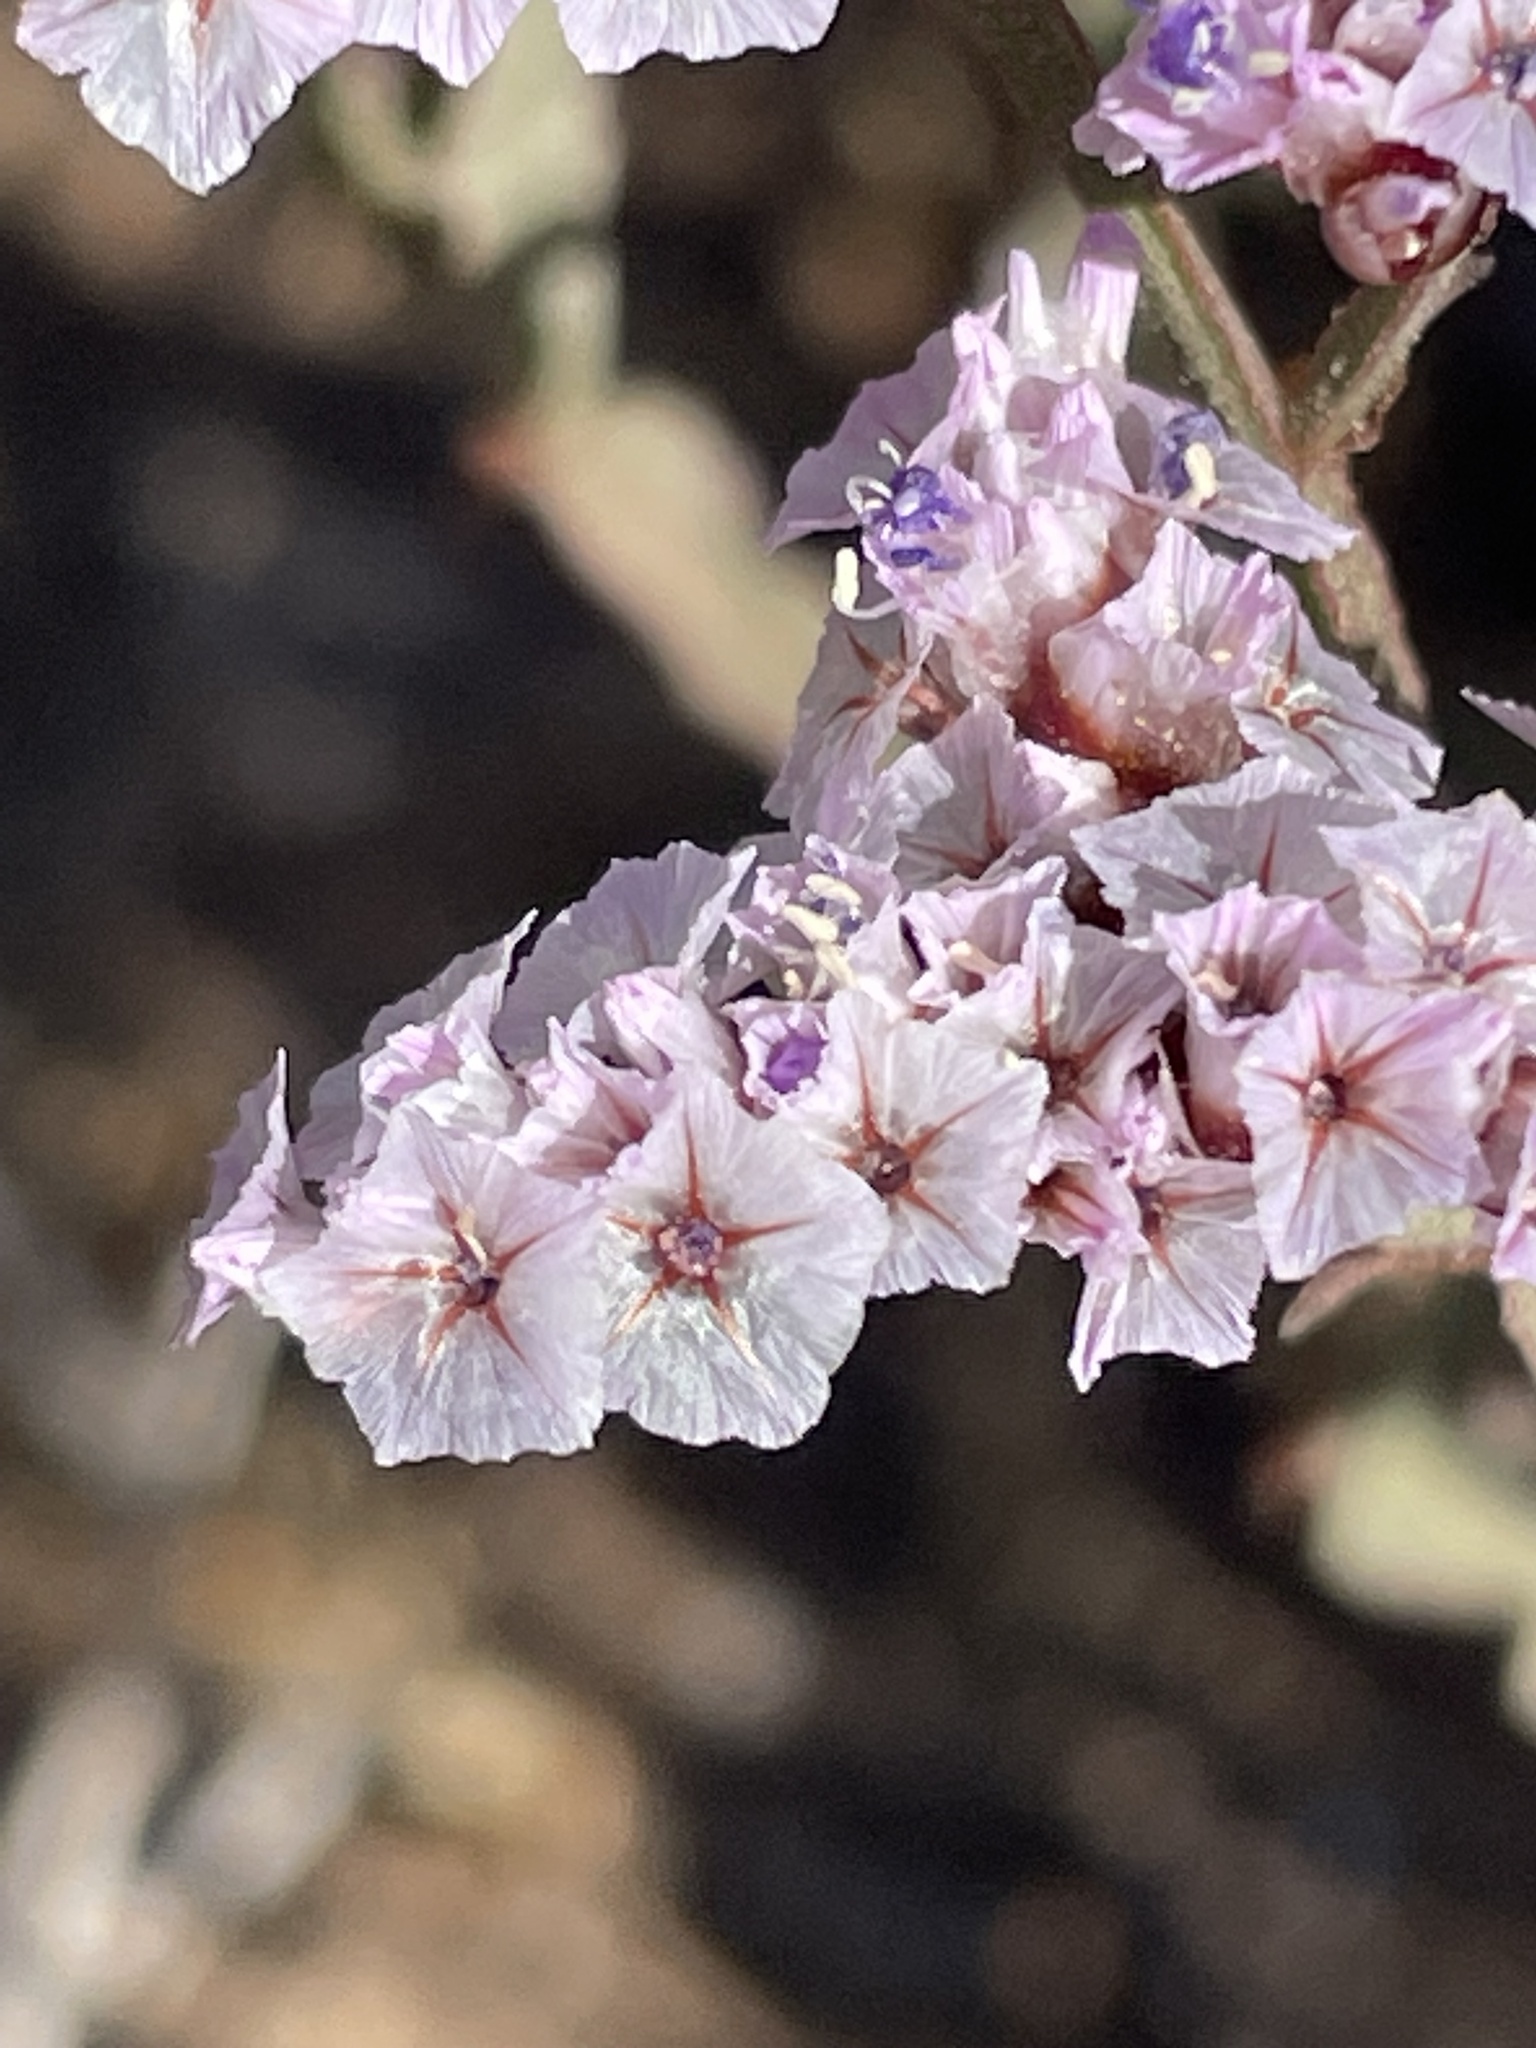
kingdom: Plantae
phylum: Tracheophyta
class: Magnoliopsida
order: Caryophyllales
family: Plumbaginaceae
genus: Limonium
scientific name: Limonium mucronatum
